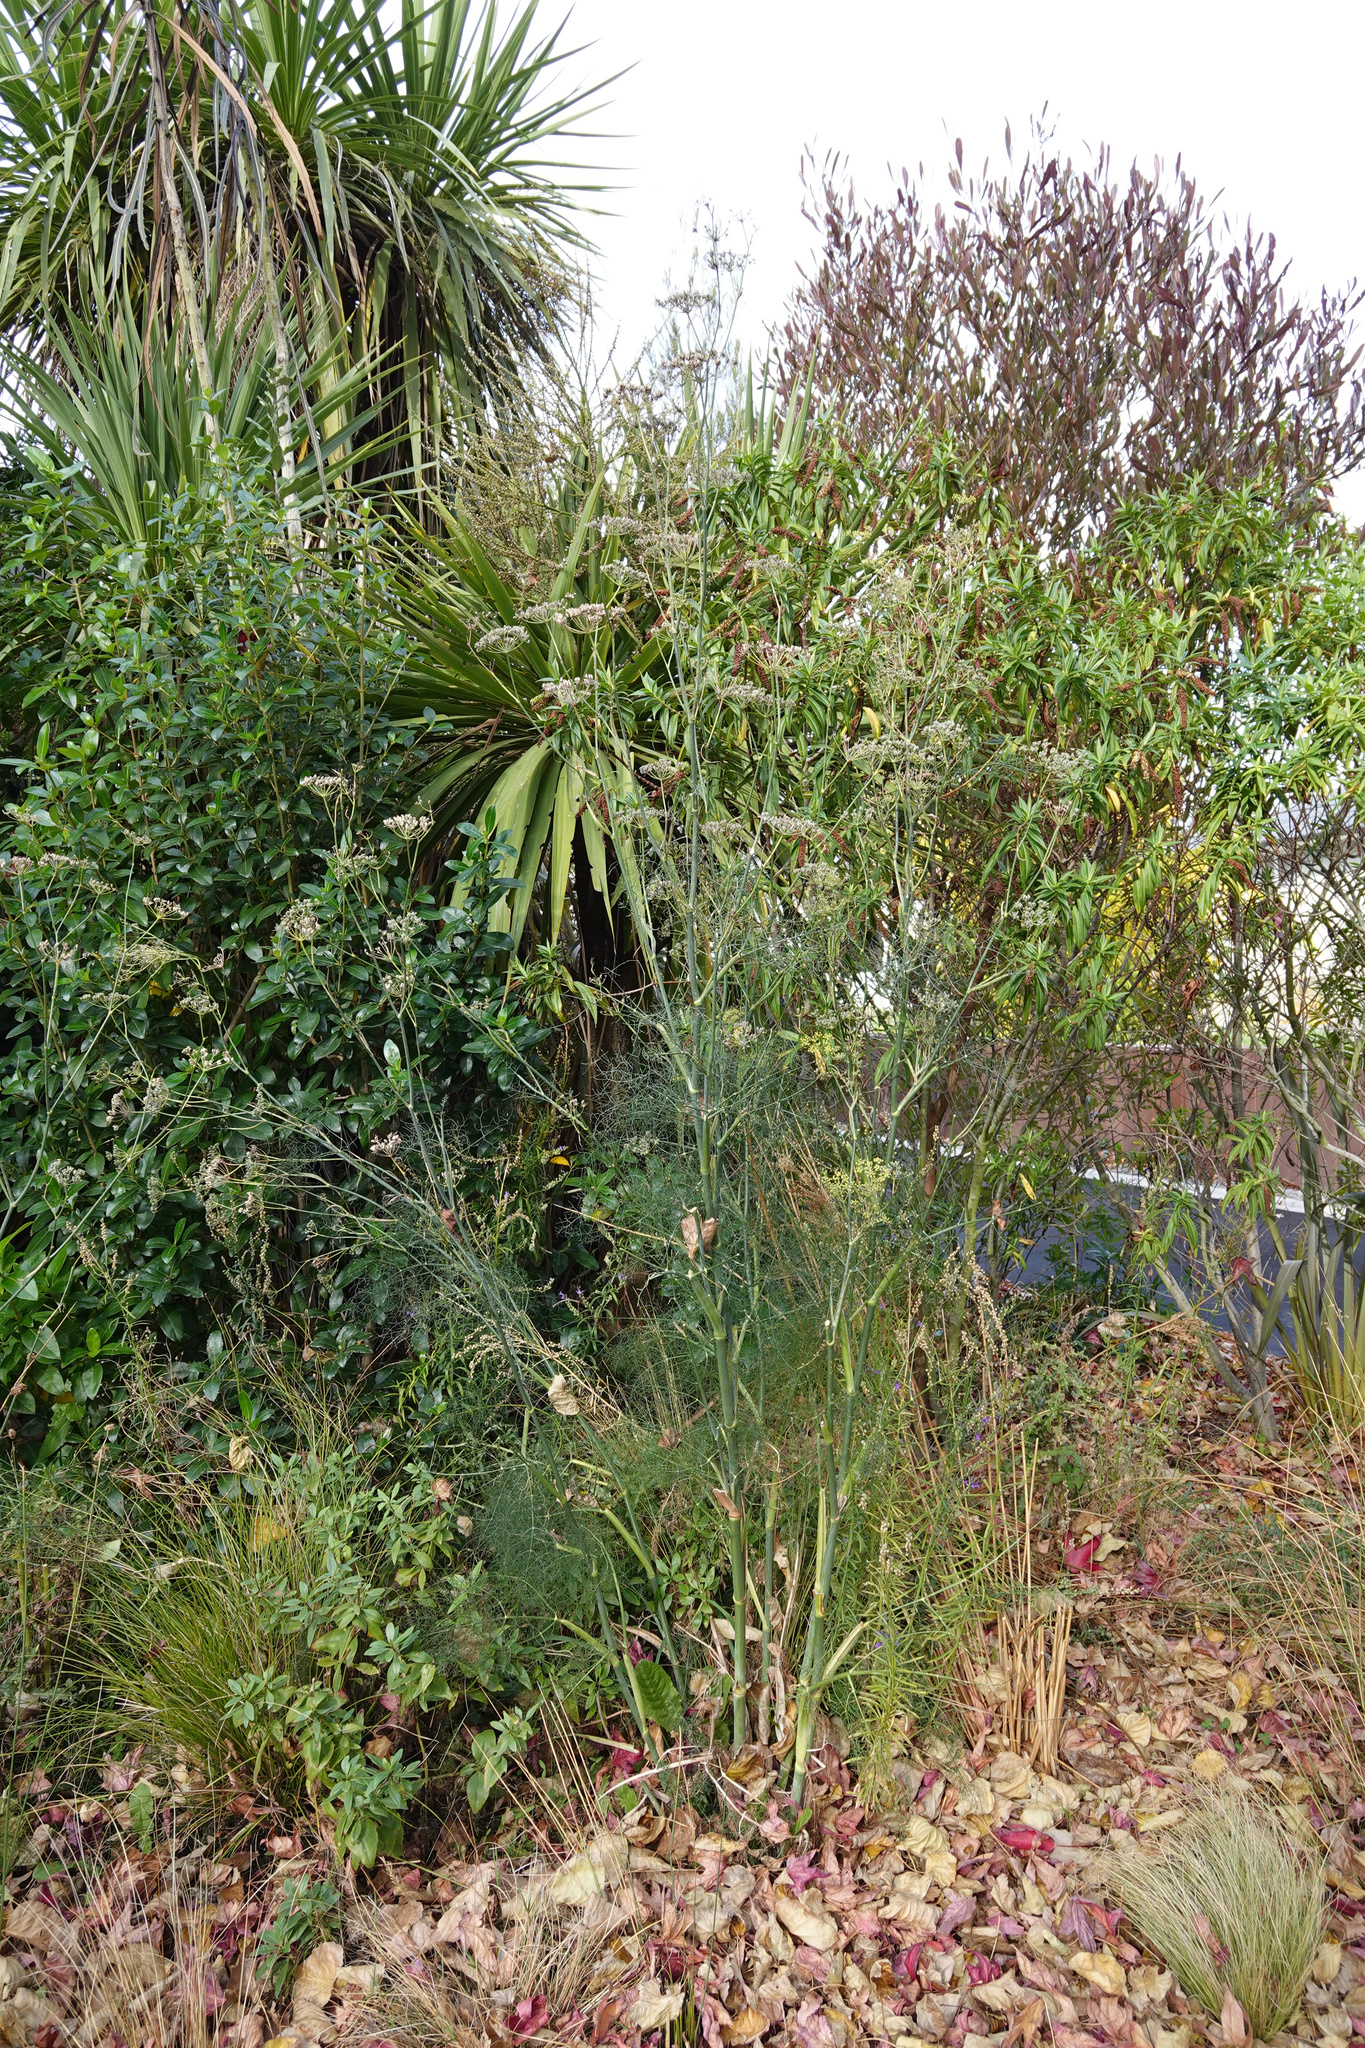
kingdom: Plantae
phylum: Tracheophyta
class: Magnoliopsida
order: Apiales
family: Apiaceae
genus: Foeniculum
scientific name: Foeniculum vulgare
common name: Fennel
